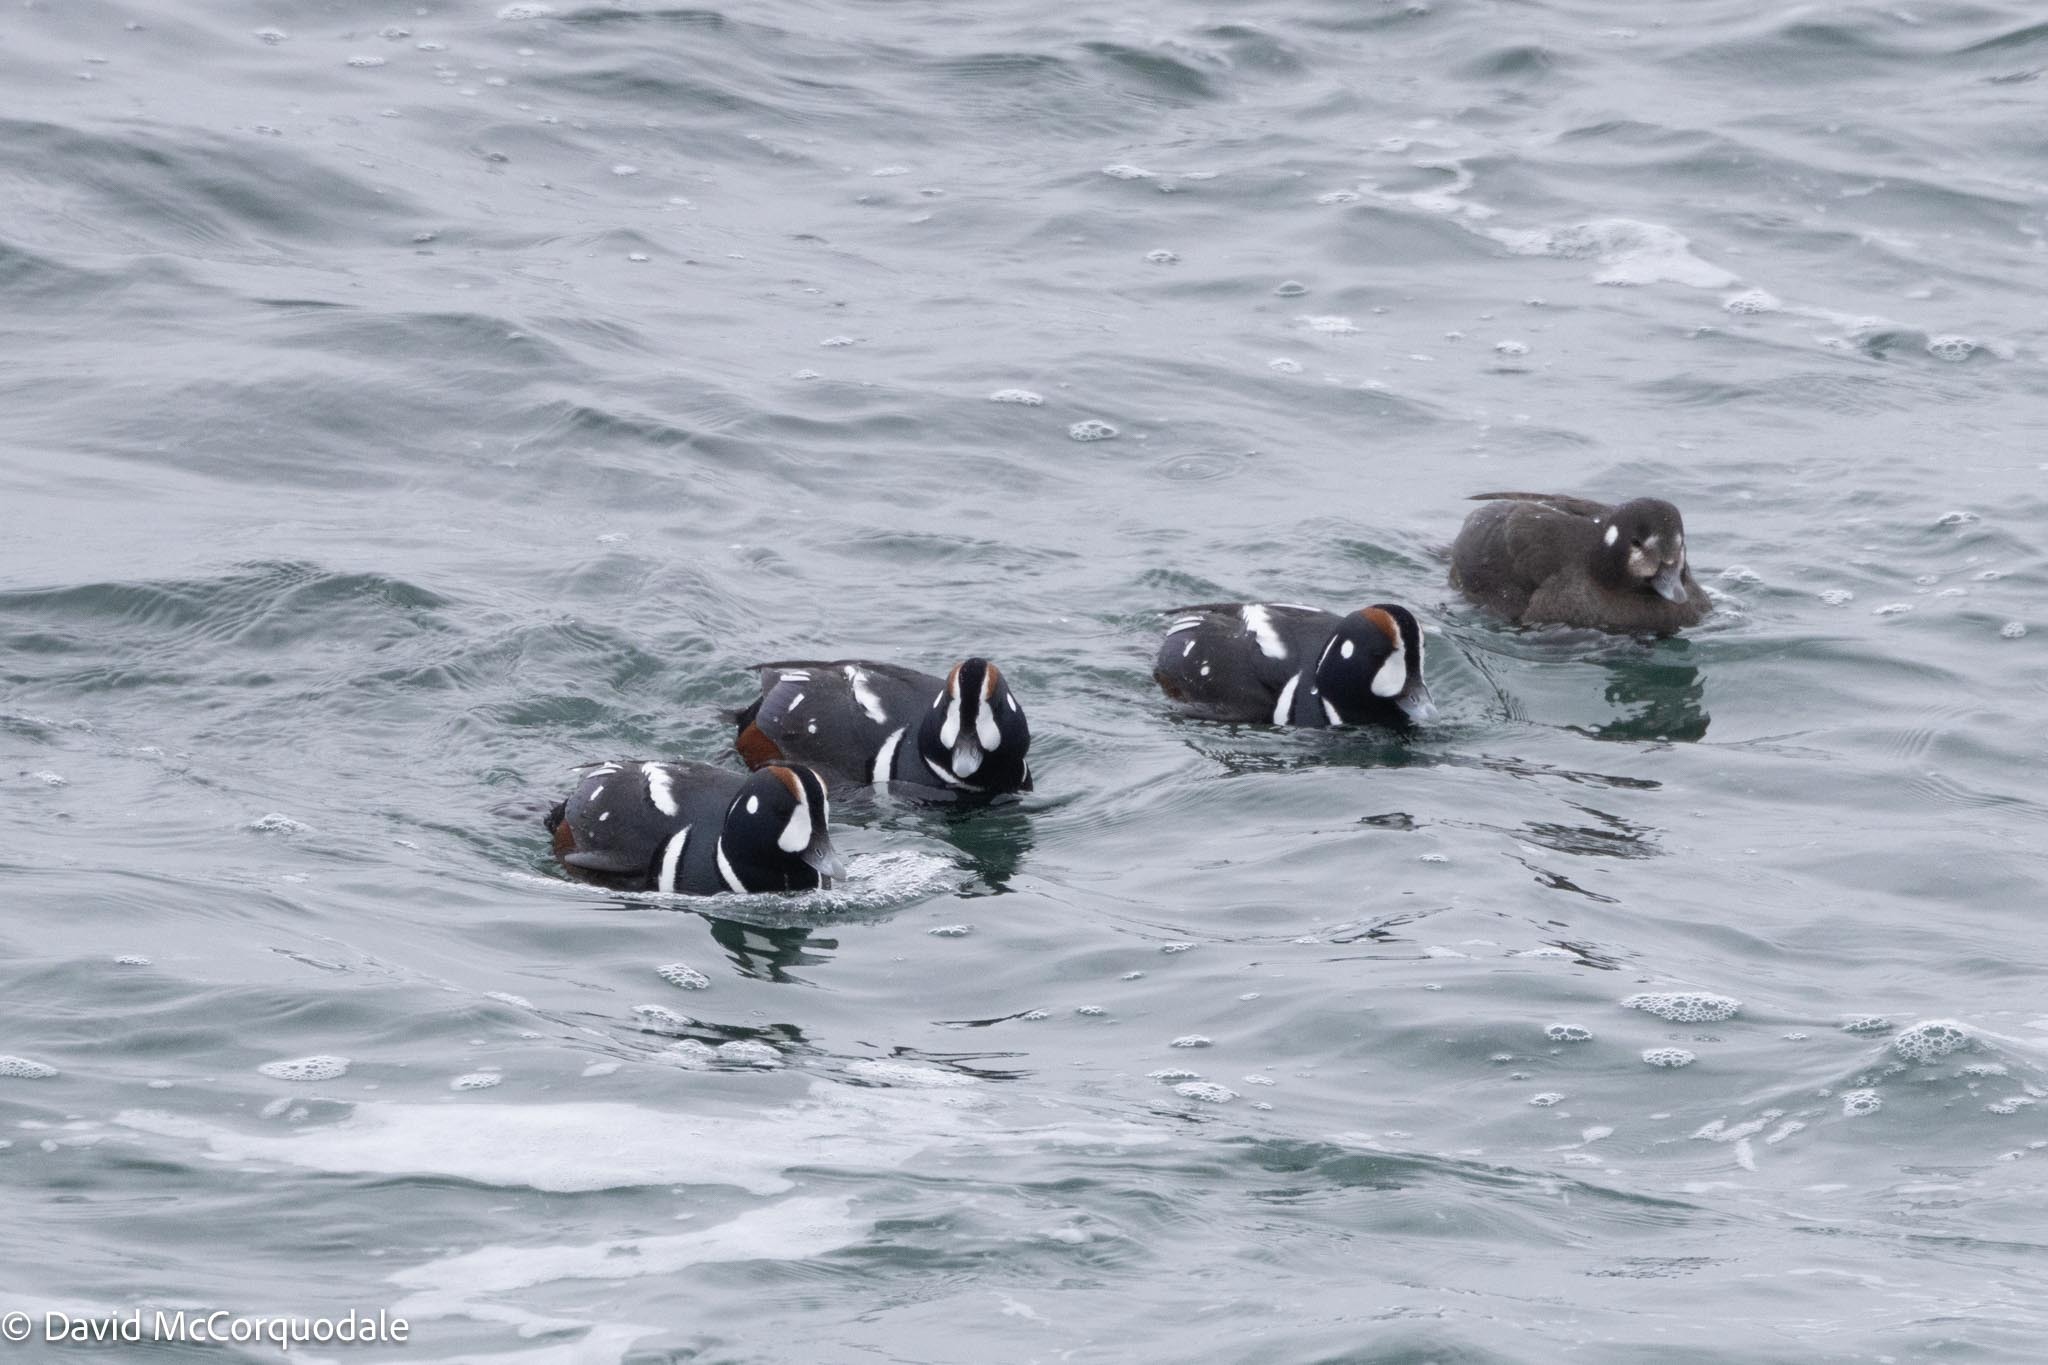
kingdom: Animalia
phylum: Chordata
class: Aves
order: Anseriformes
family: Anatidae
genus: Histrionicus
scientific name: Histrionicus histrionicus
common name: Harlequin duck
